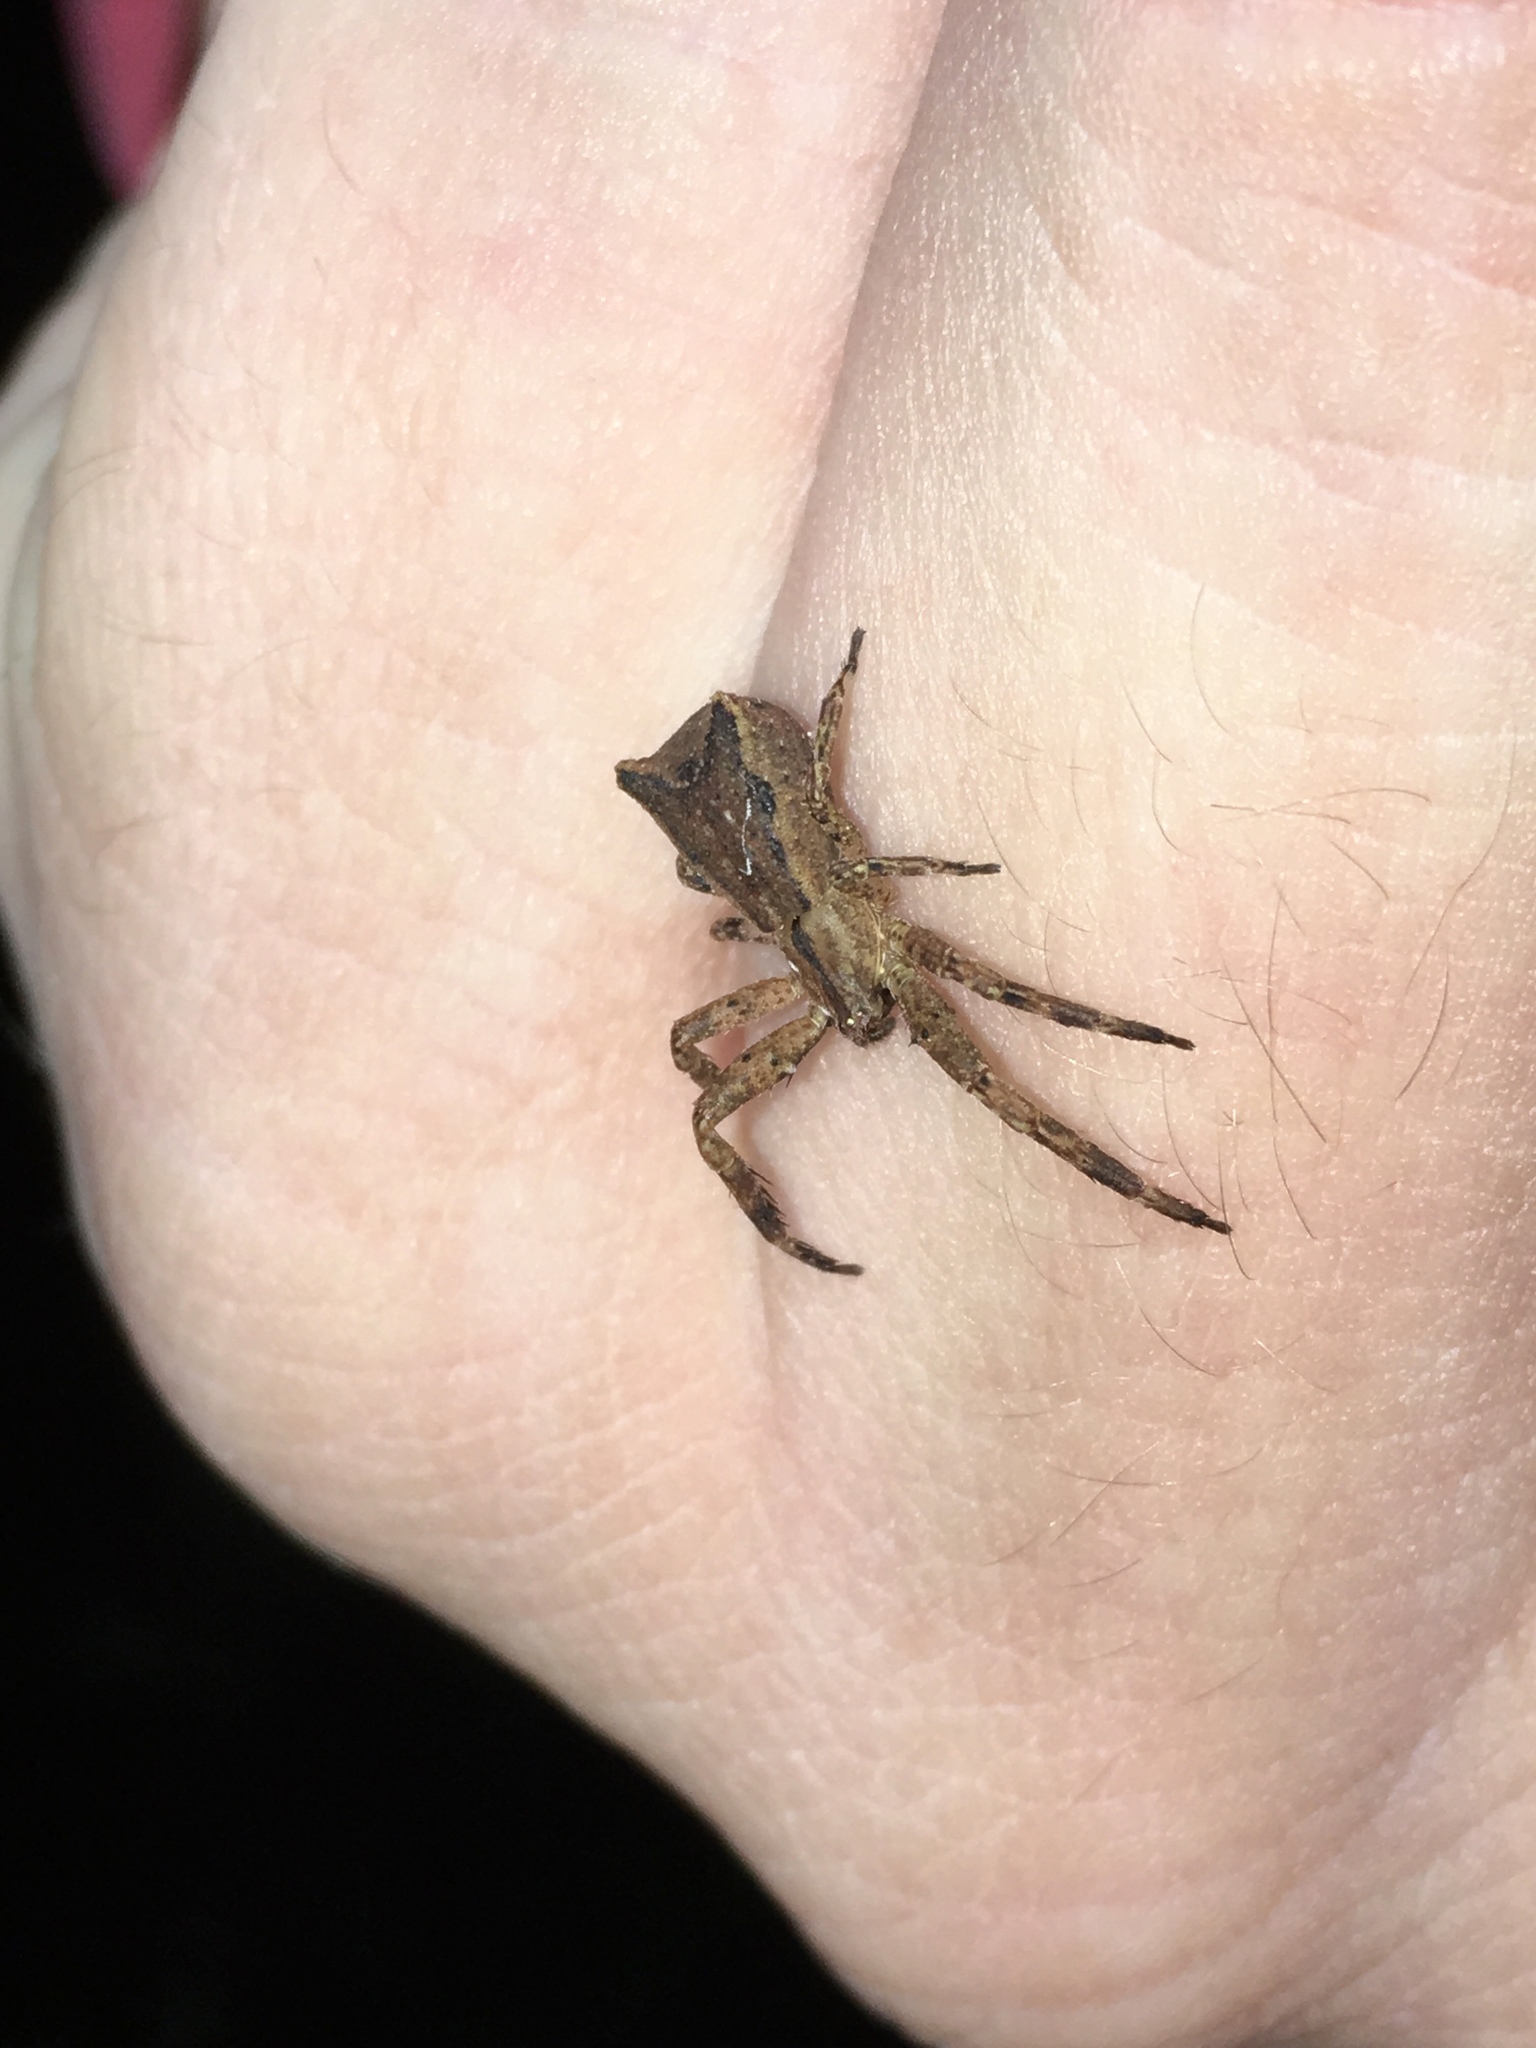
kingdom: Animalia
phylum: Arthropoda
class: Arachnida
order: Araneae
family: Thomisidae
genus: Sidymella
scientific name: Sidymella angulata
